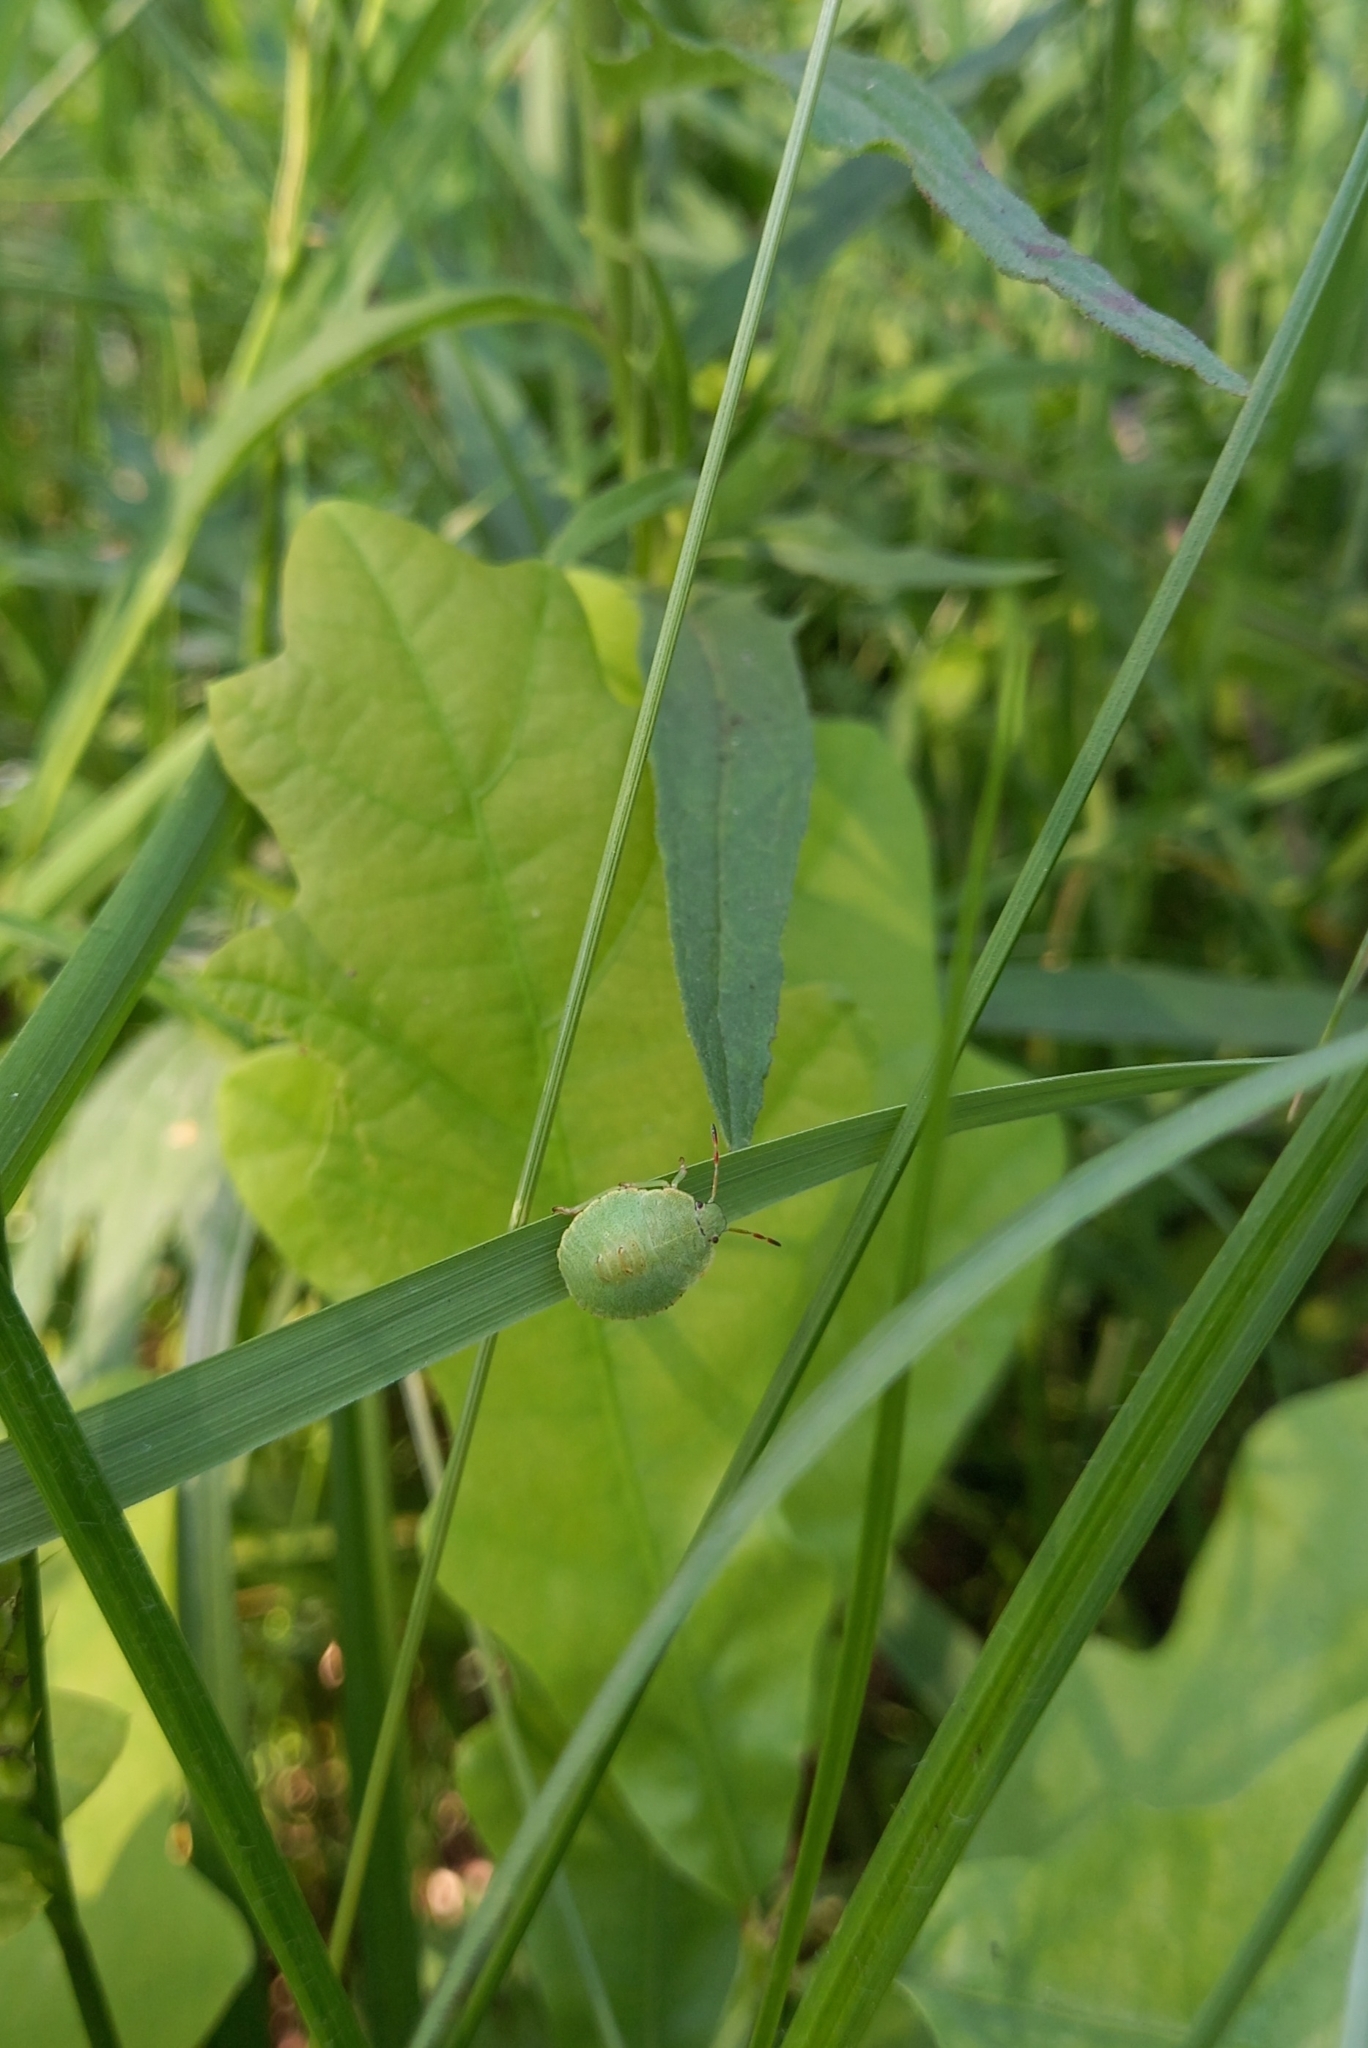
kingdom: Animalia
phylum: Arthropoda
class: Insecta
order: Hemiptera
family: Pentatomidae
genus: Palomena
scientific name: Palomena prasina
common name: Green shieldbug
